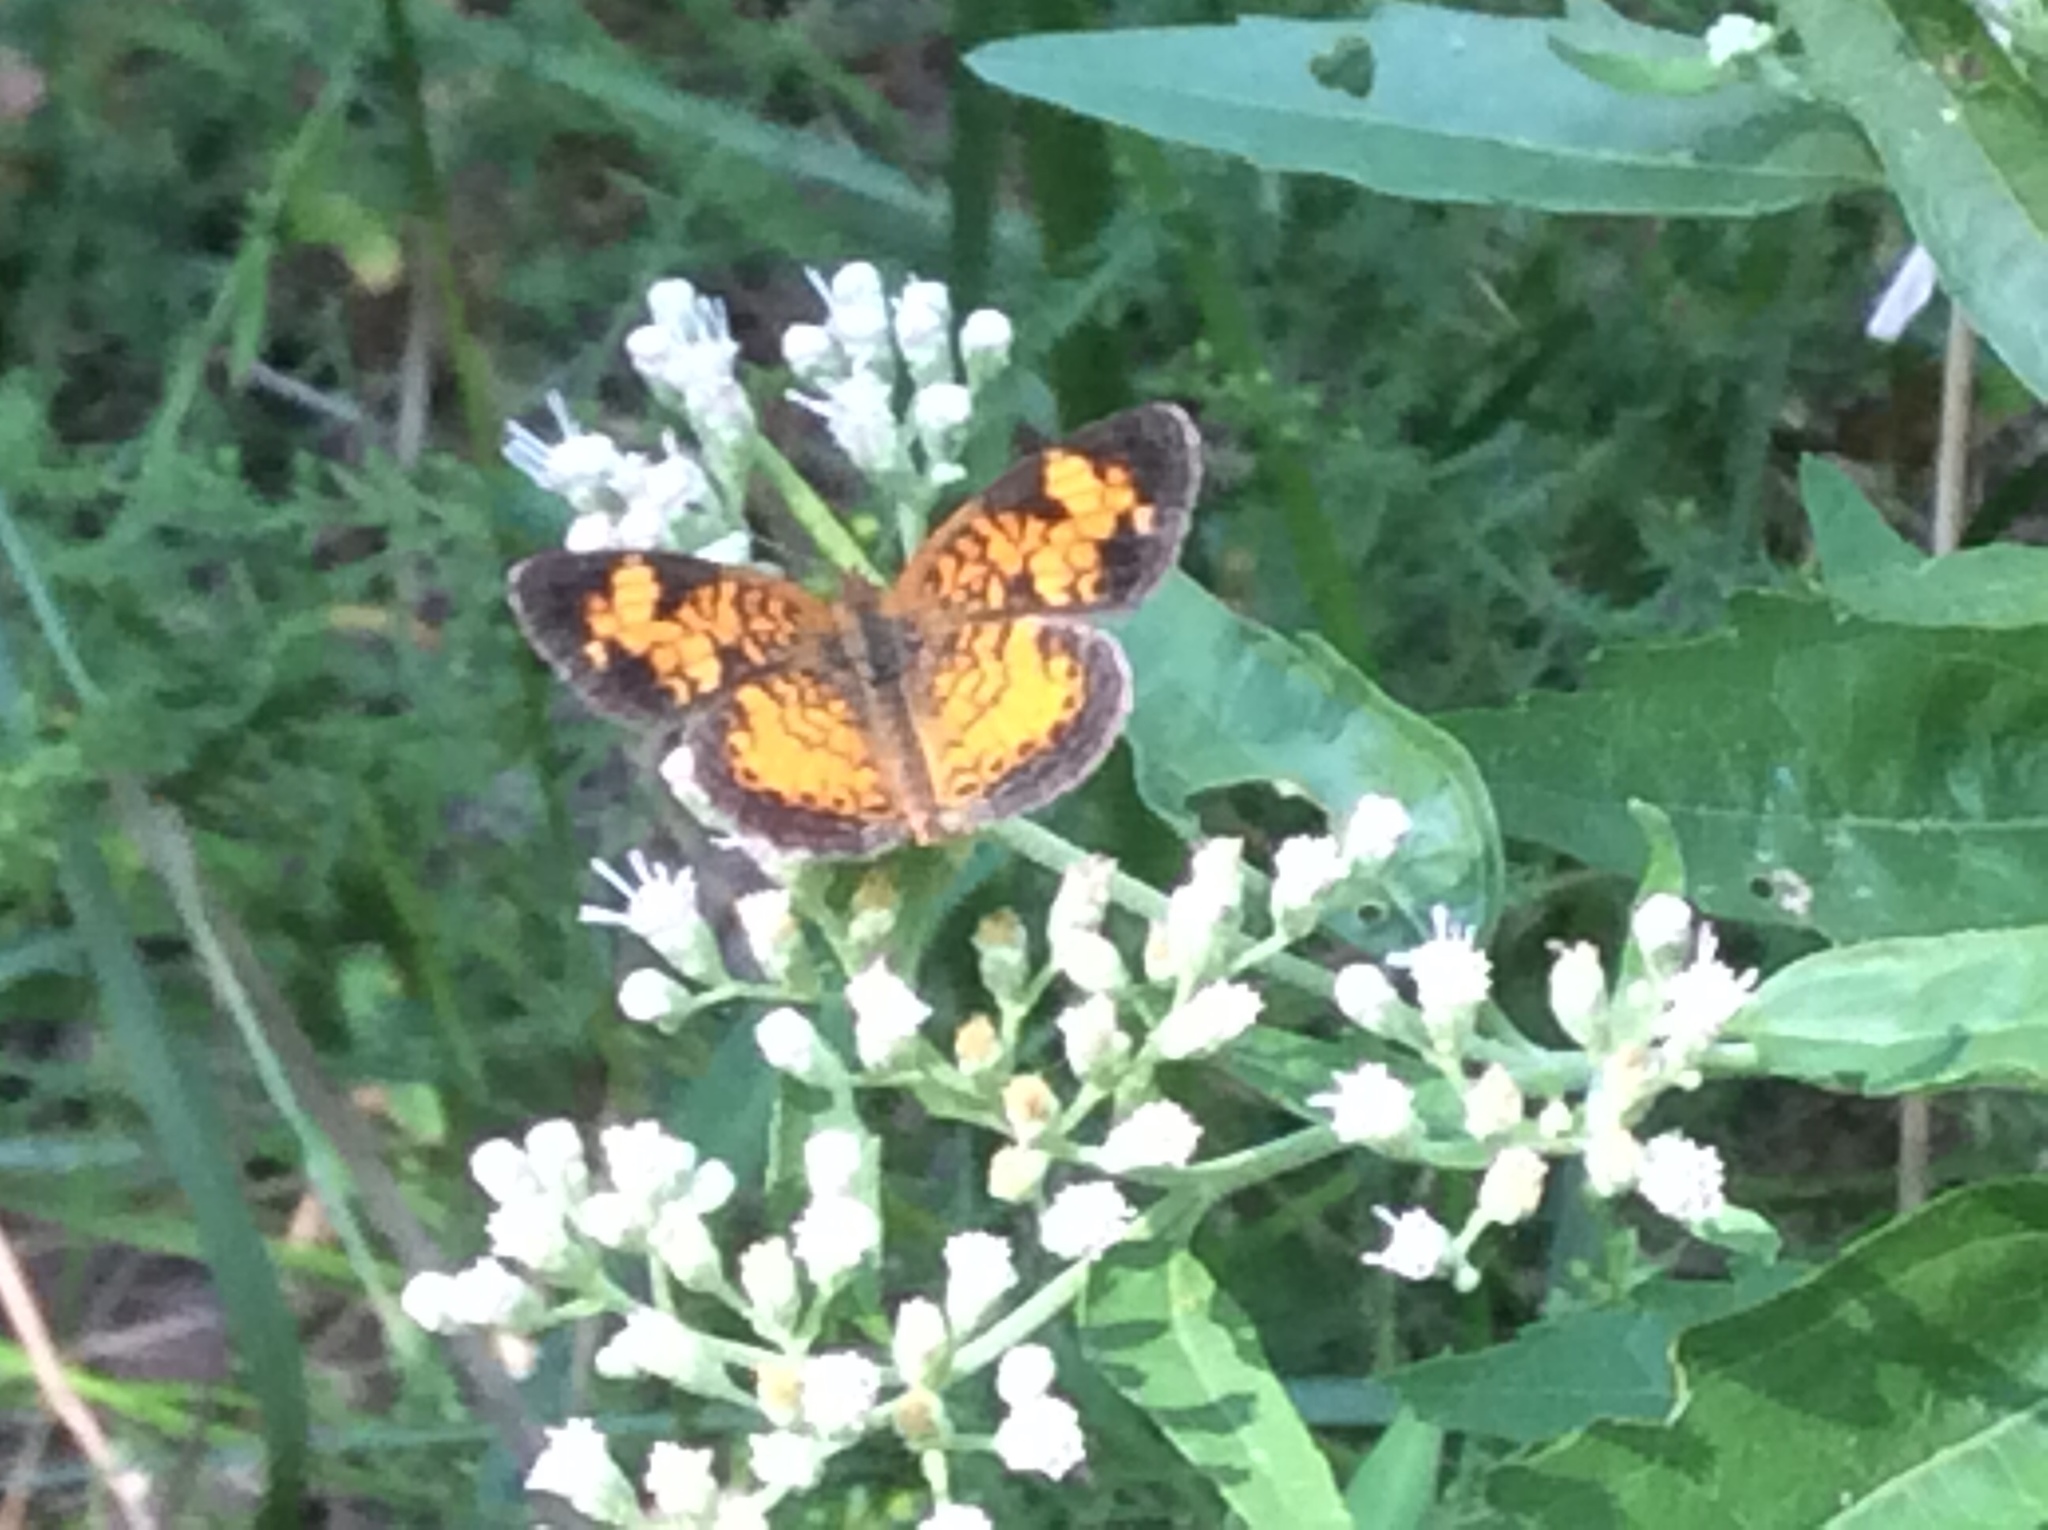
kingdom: Animalia
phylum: Arthropoda
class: Insecta
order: Lepidoptera
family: Nymphalidae
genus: Phyciodes
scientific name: Phyciodes tharos
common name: Pearl crescent
